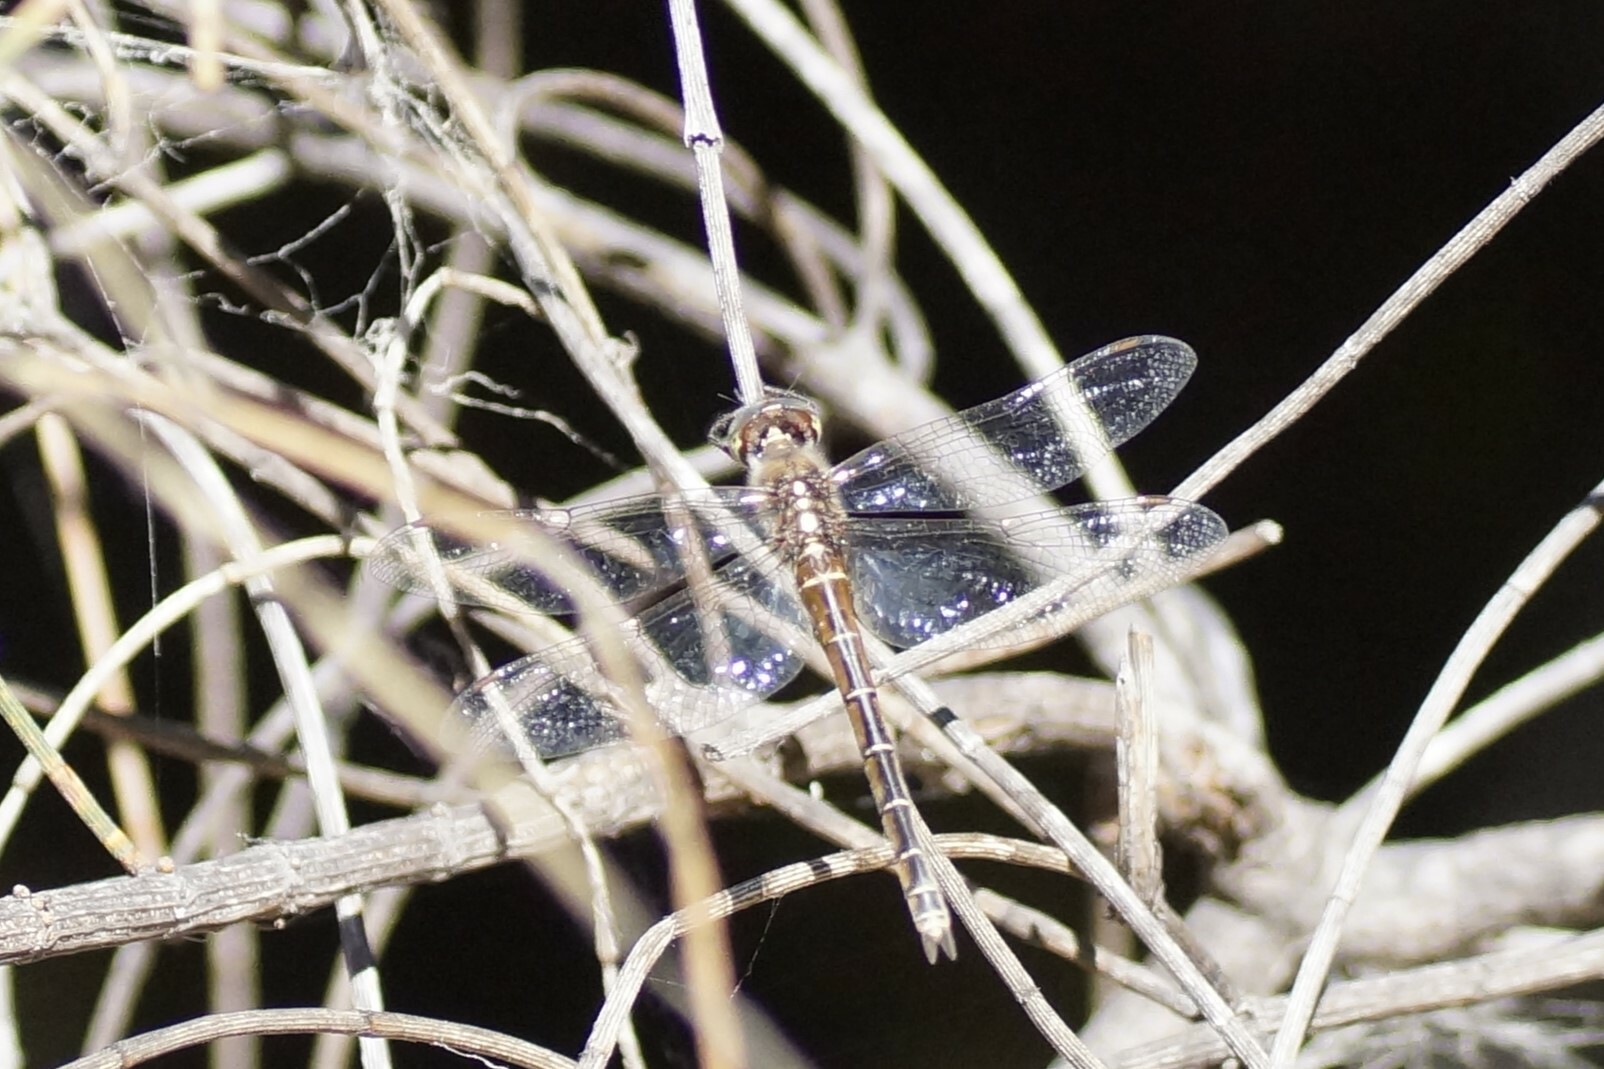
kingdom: Animalia
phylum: Arthropoda
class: Insecta
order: Odonata
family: Corduliidae
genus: Procordulia
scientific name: Procordulia jacksoniensis
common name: Eastern swamp emerald
